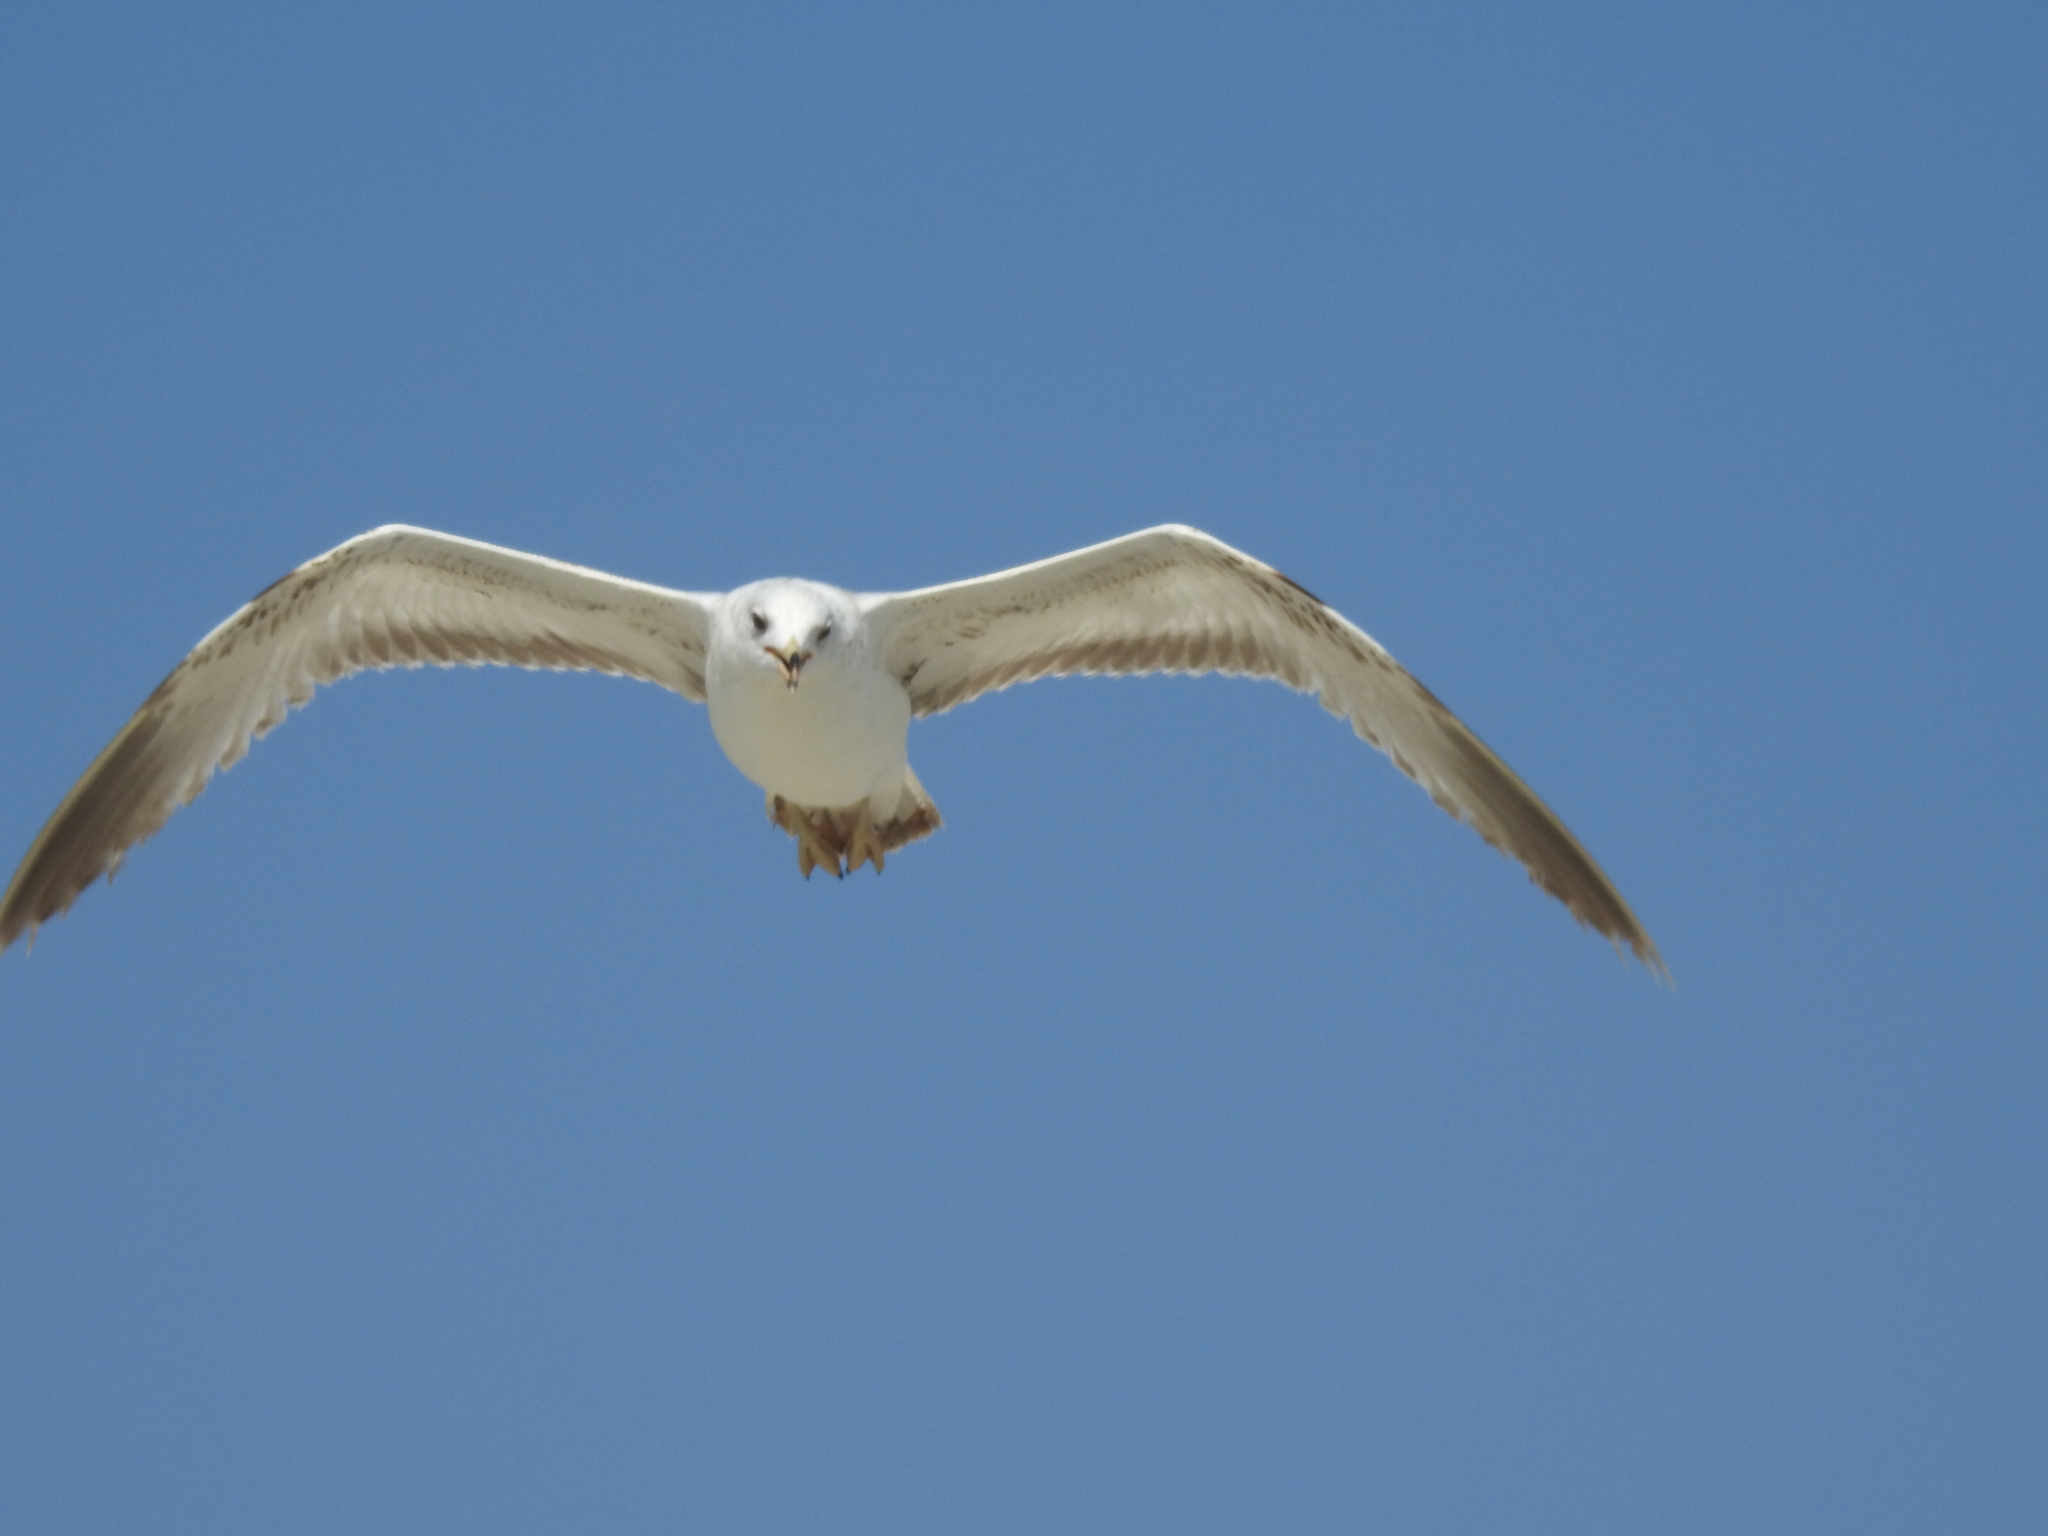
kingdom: Animalia
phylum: Chordata
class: Aves
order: Charadriiformes
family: Laridae
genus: Larus
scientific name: Larus delawarensis
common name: Ring-billed gull
